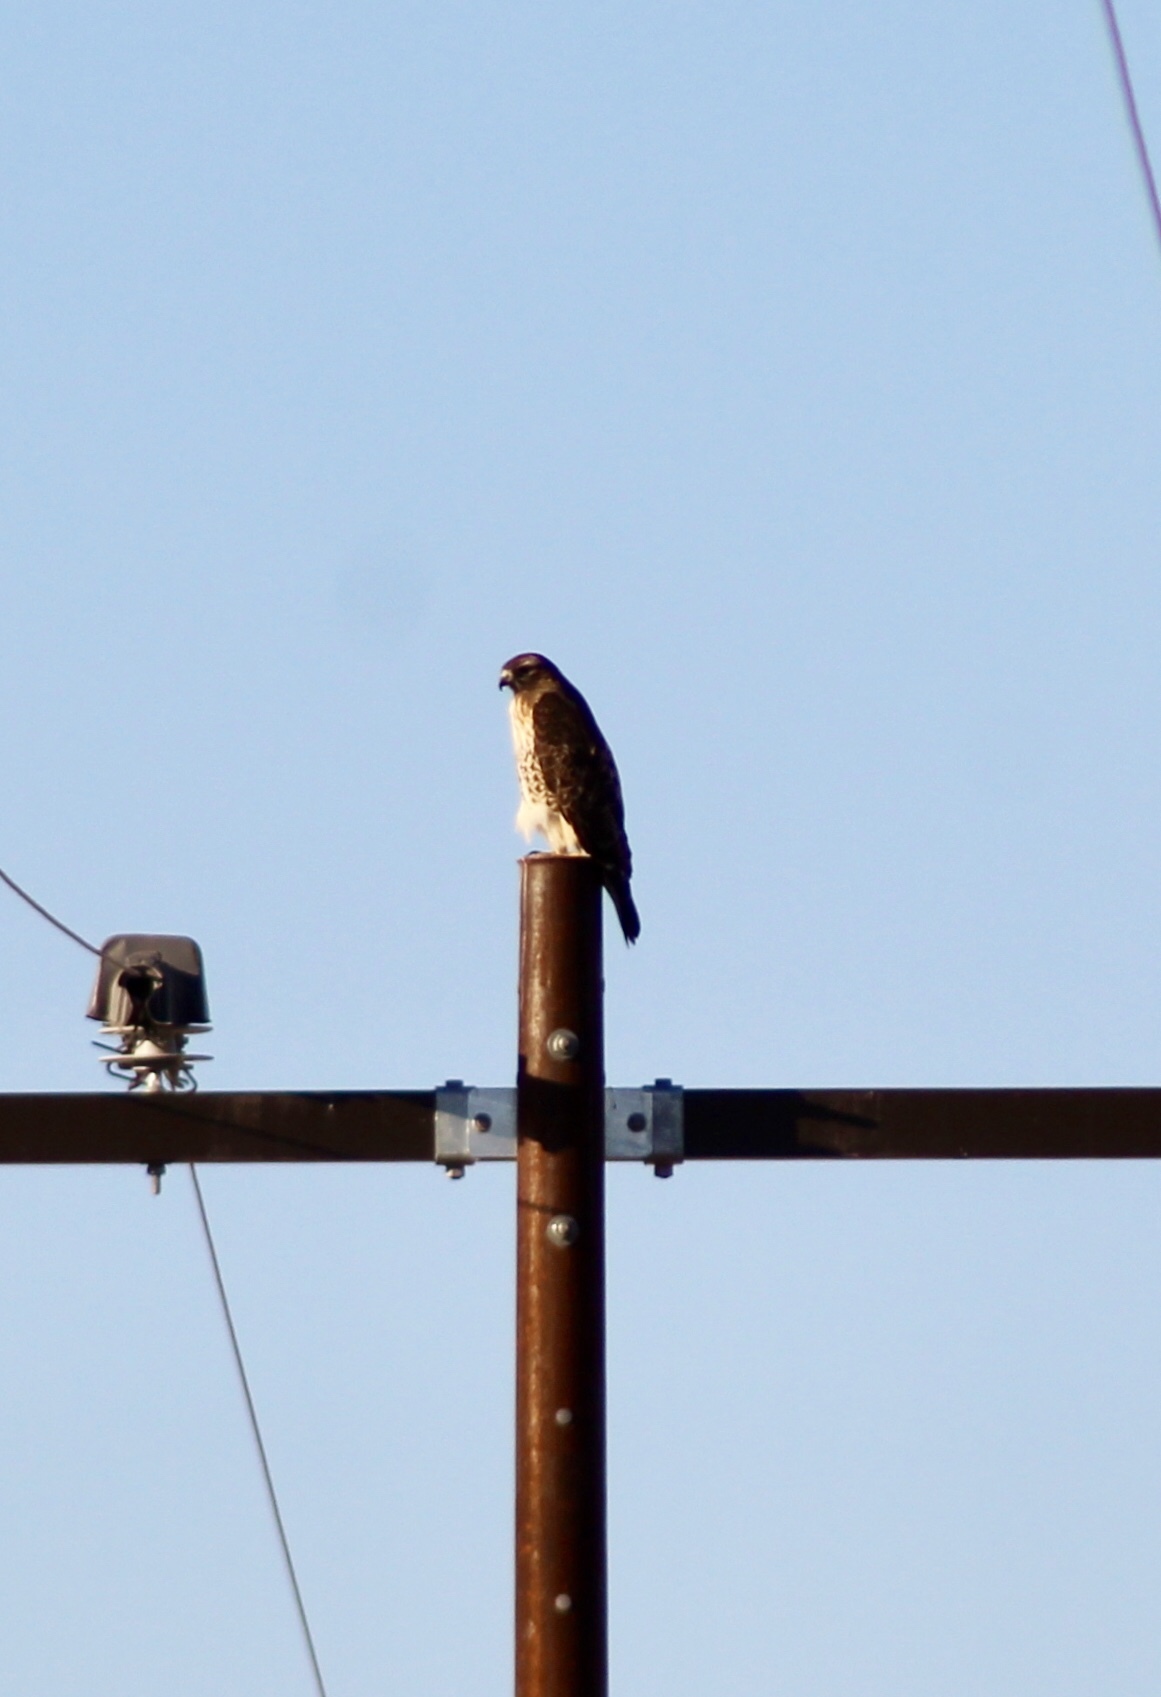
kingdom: Animalia
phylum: Chordata
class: Aves
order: Accipitriformes
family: Accipitridae
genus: Buteo
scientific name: Buteo jamaicensis
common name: Red-tailed hawk
